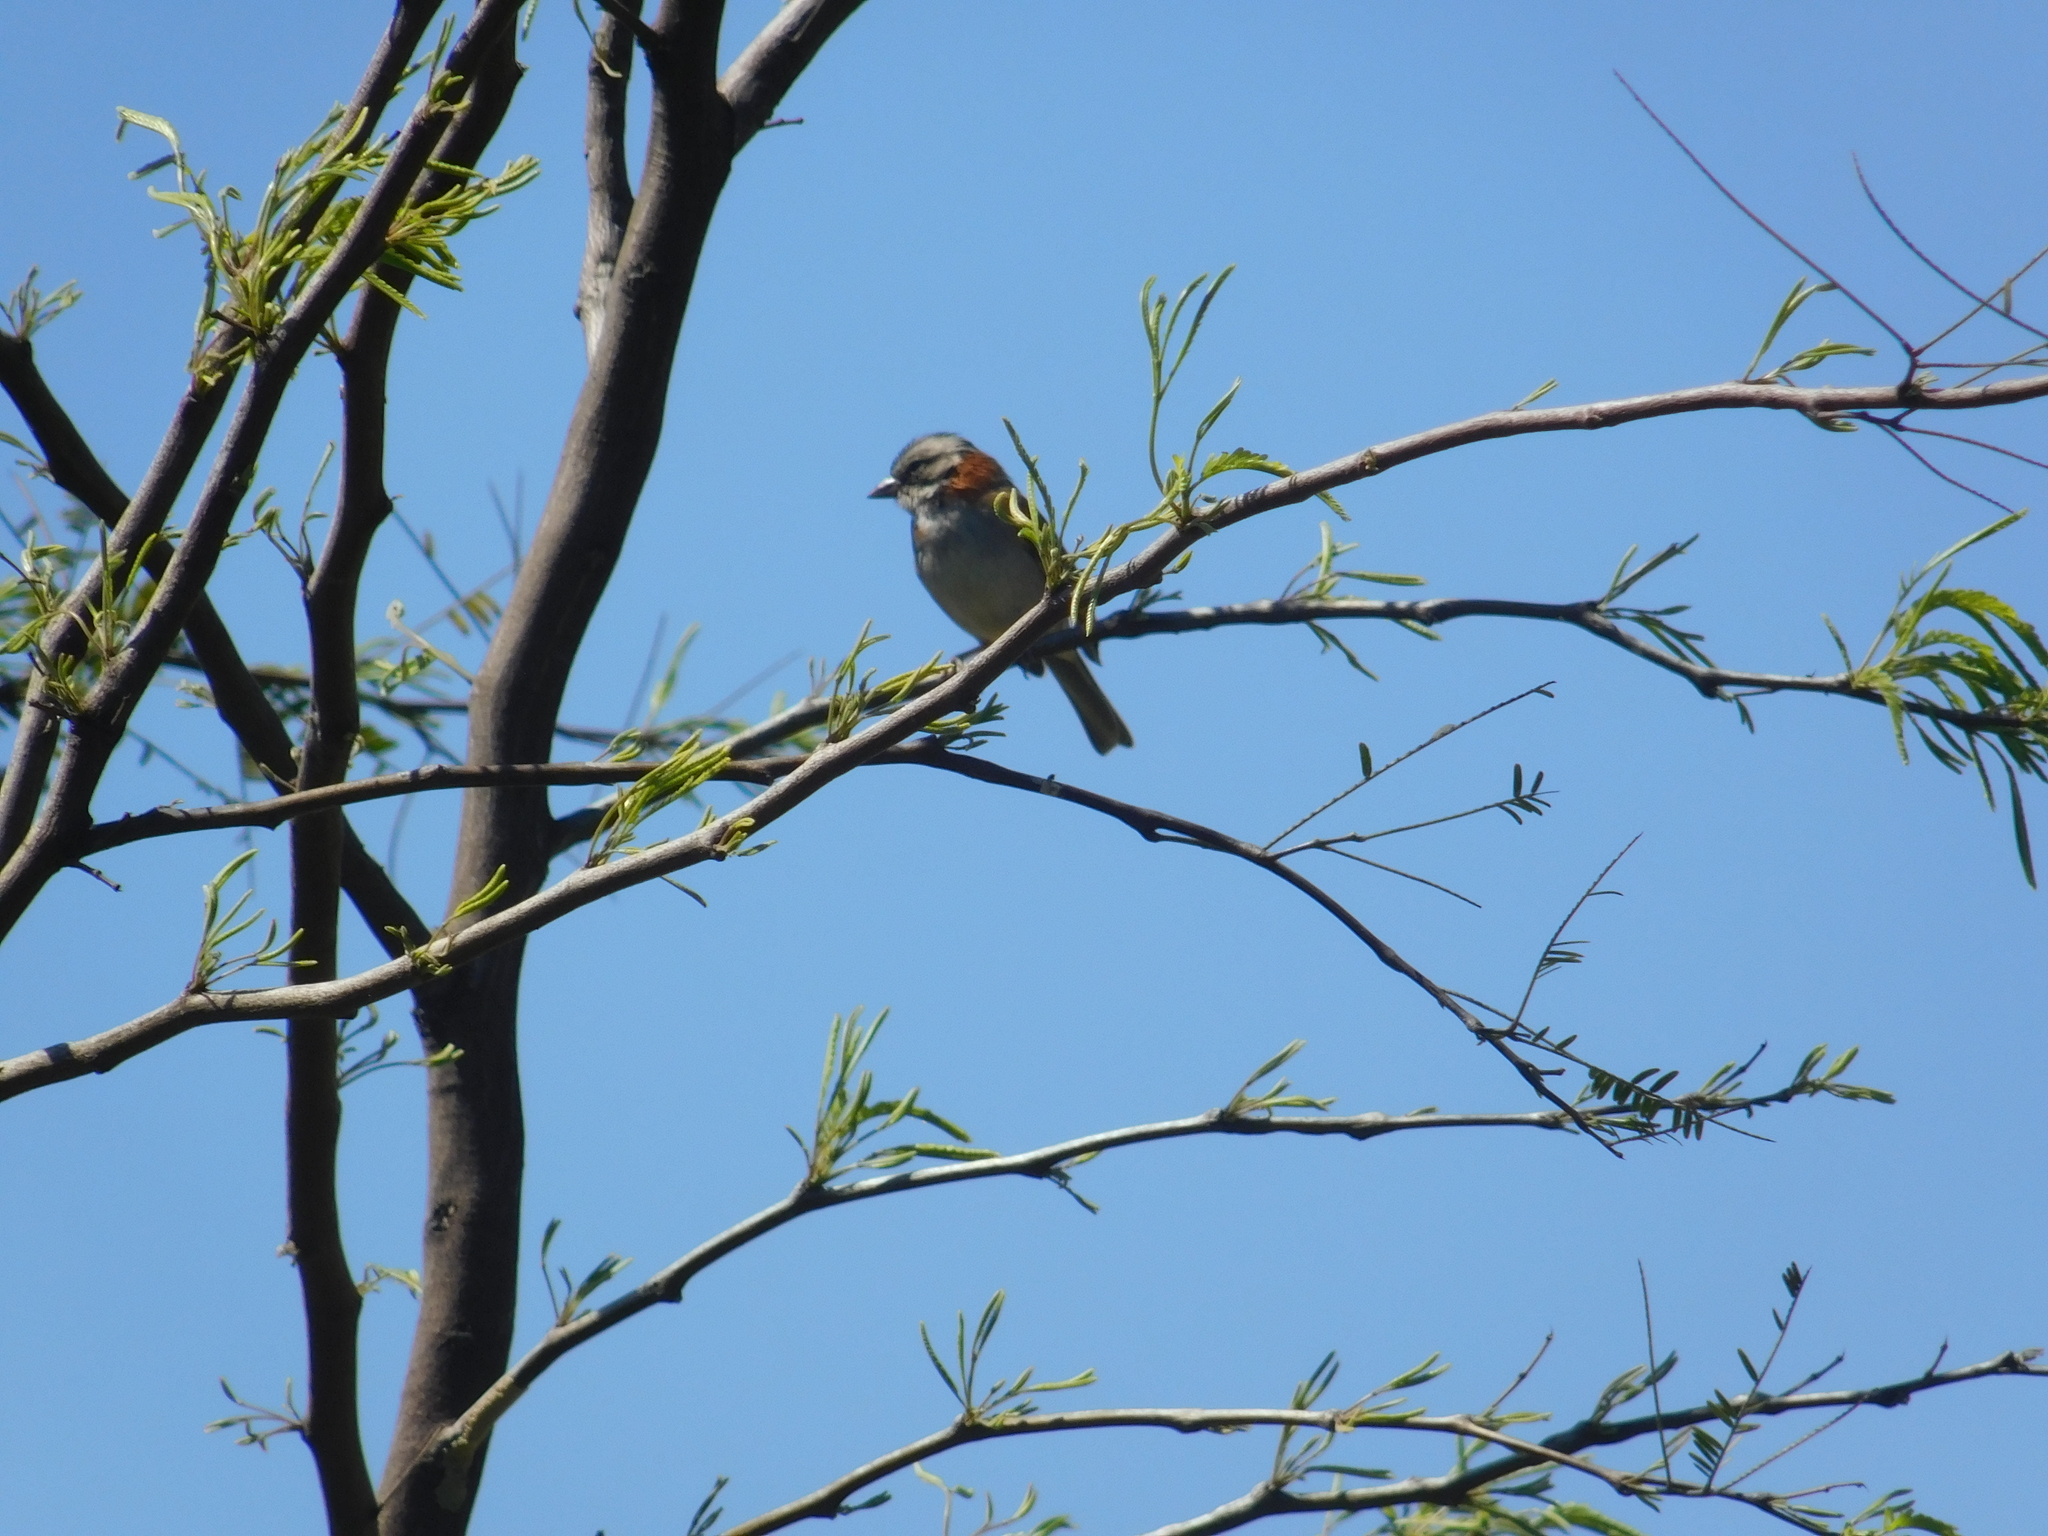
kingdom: Animalia
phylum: Chordata
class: Aves
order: Passeriformes
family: Passerellidae
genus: Zonotrichia
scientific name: Zonotrichia capensis
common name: Rufous-collared sparrow
